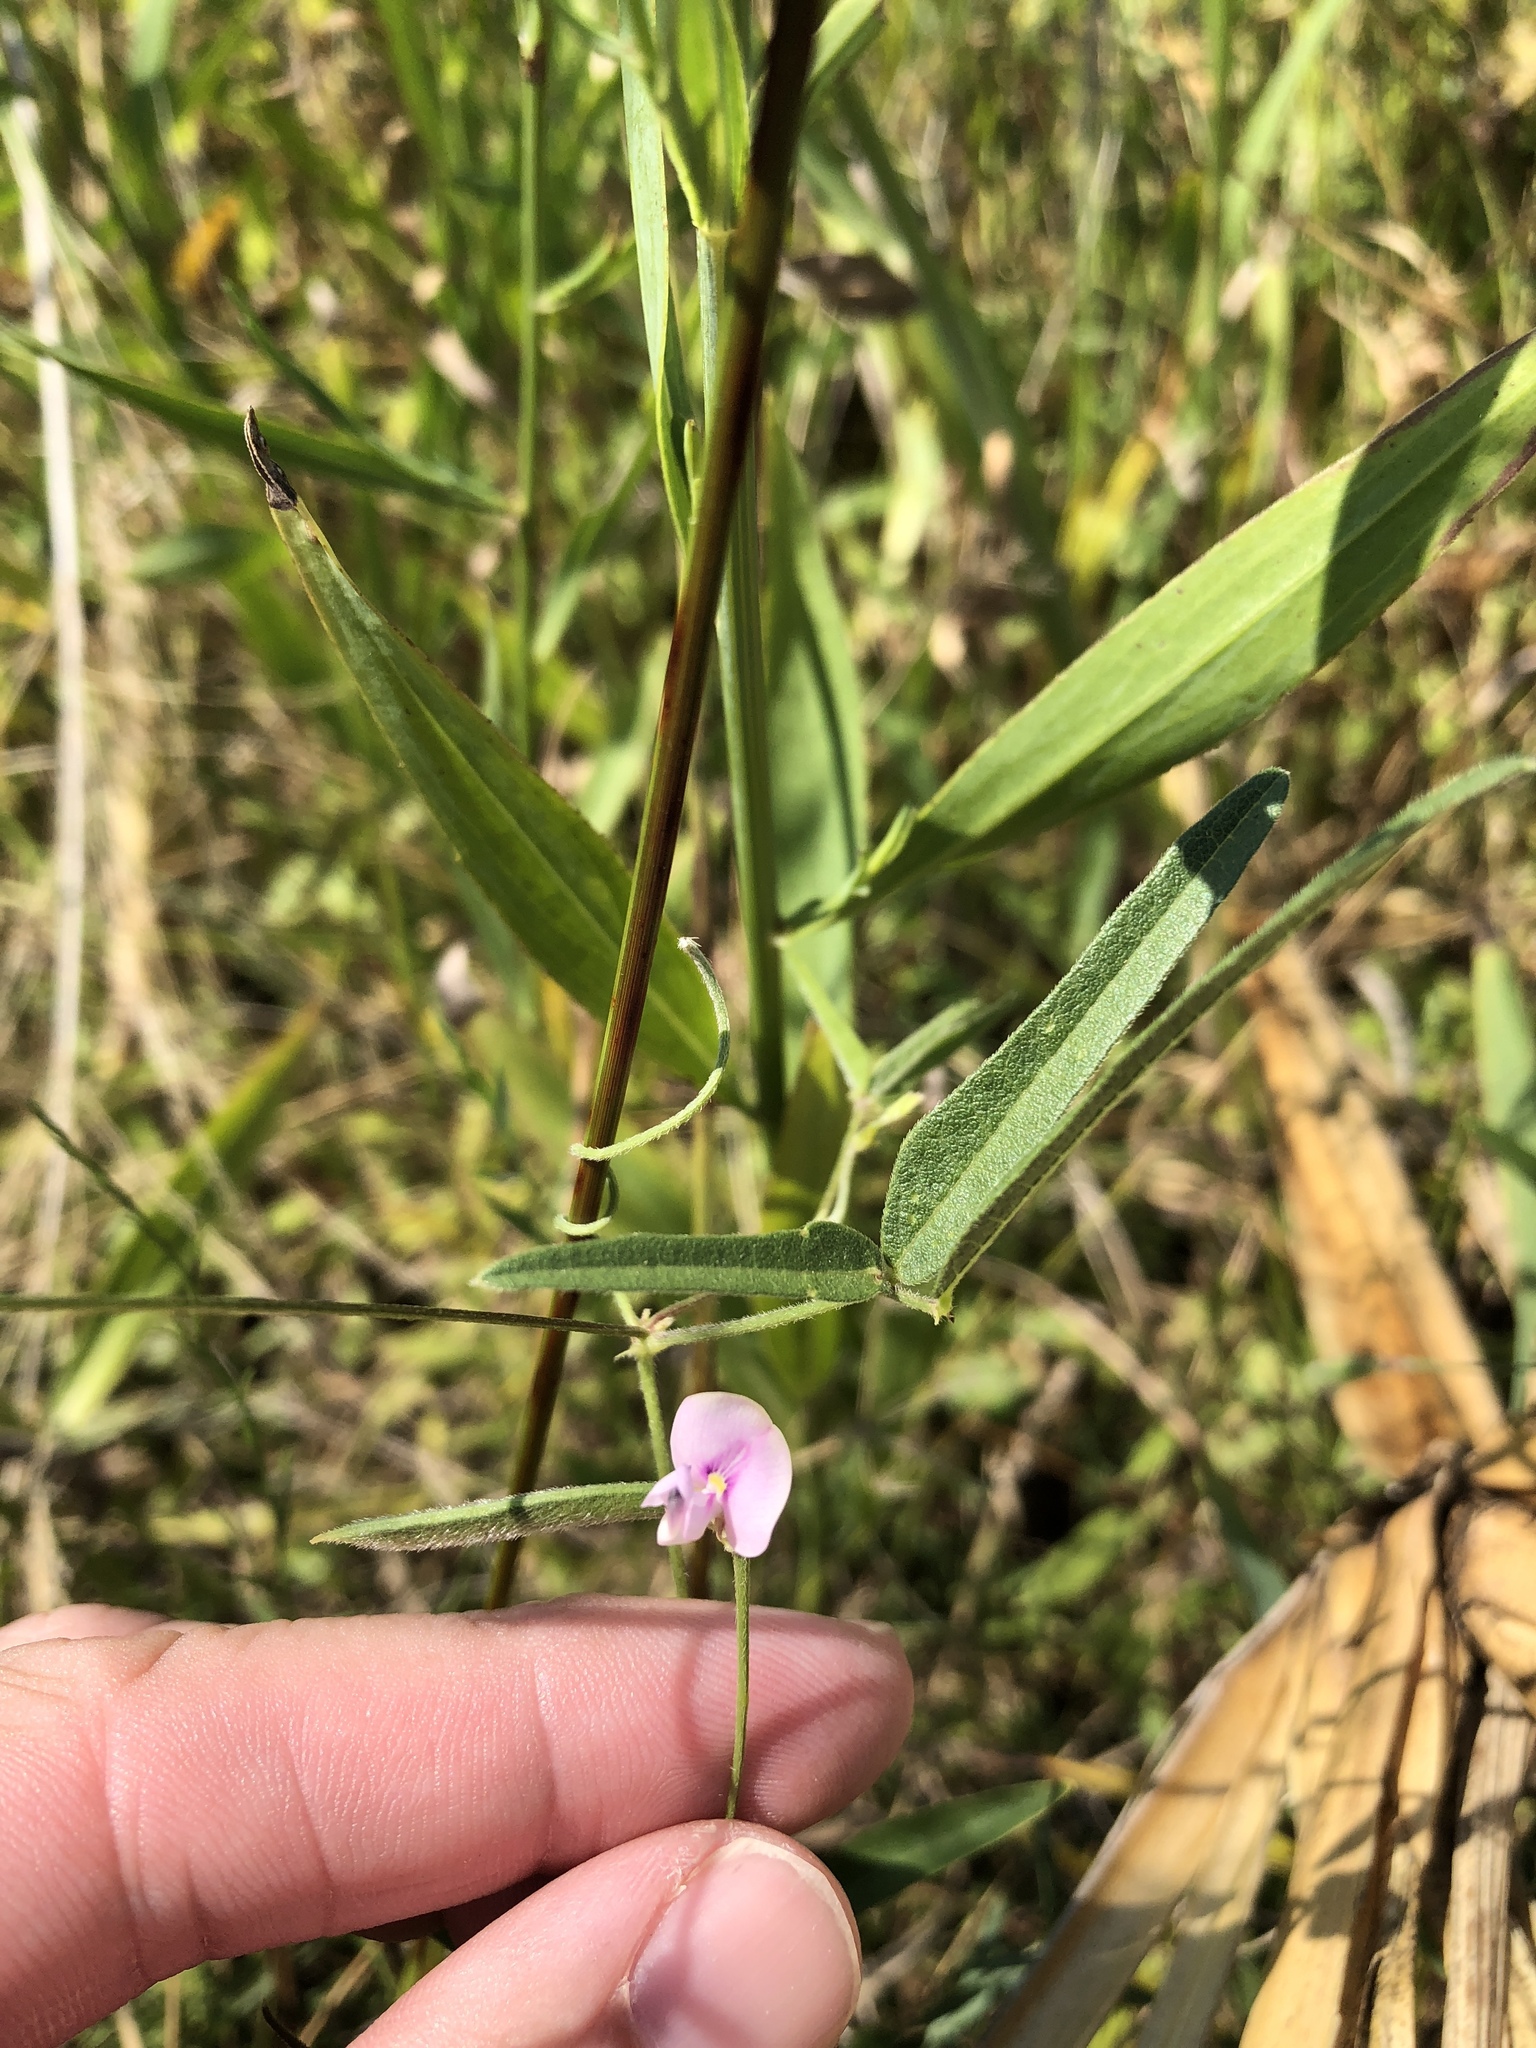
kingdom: Plantae
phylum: Tracheophyta
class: Magnoliopsida
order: Fabales
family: Fabaceae
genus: Strophostyles
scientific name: Strophostyles leiosperma
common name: Smooth-seed wild bean
